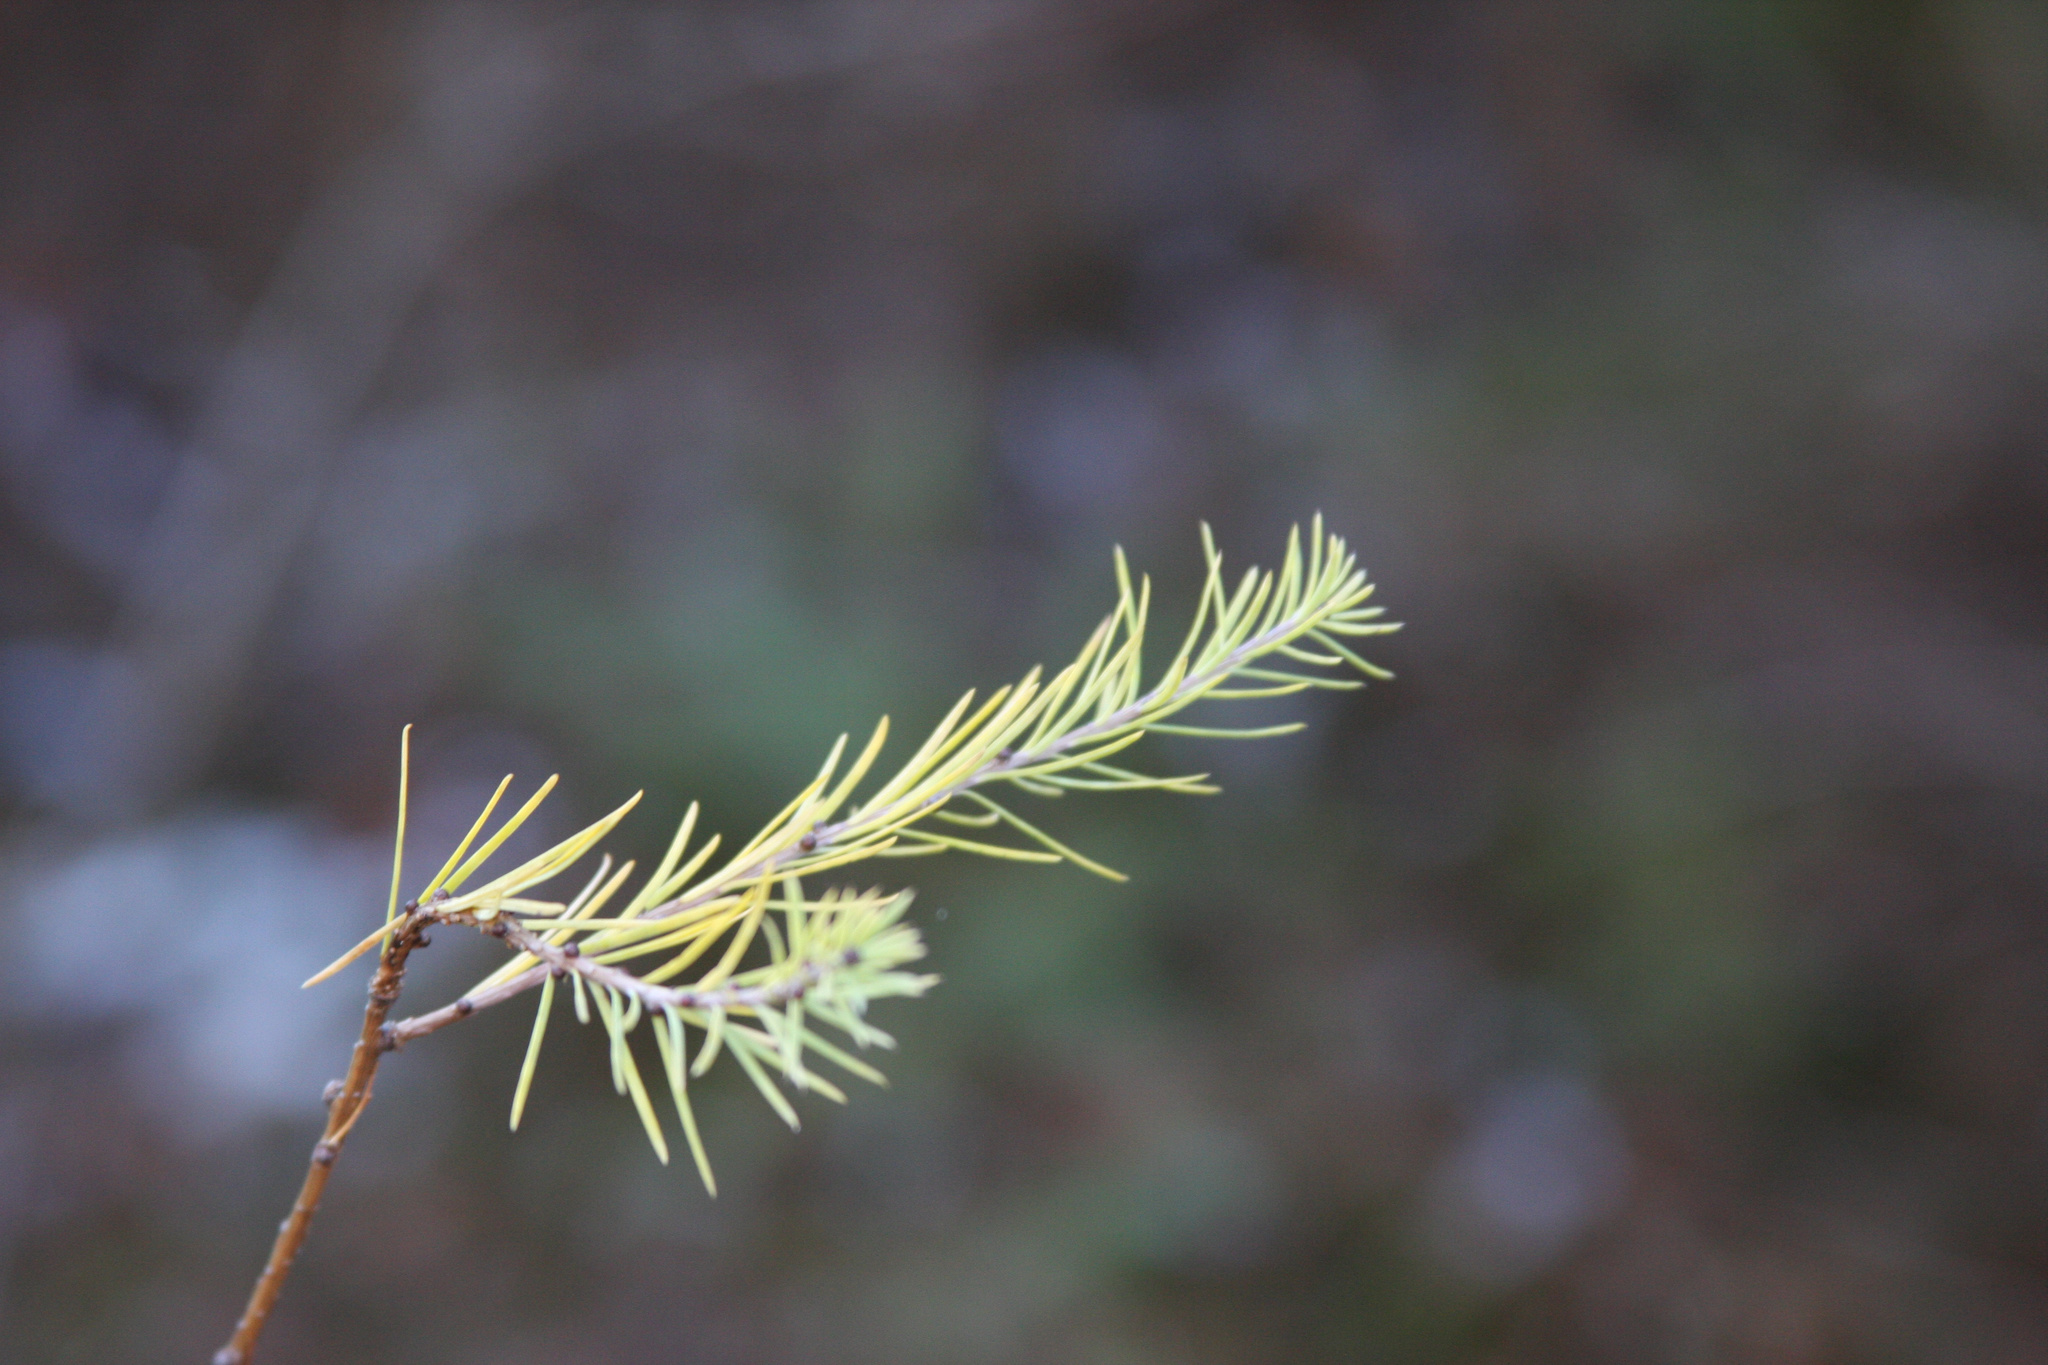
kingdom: Plantae
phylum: Tracheophyta
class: Pinopsida
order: Pinales
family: Pinaceae
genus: Larix
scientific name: Larix laricina
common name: American larch
